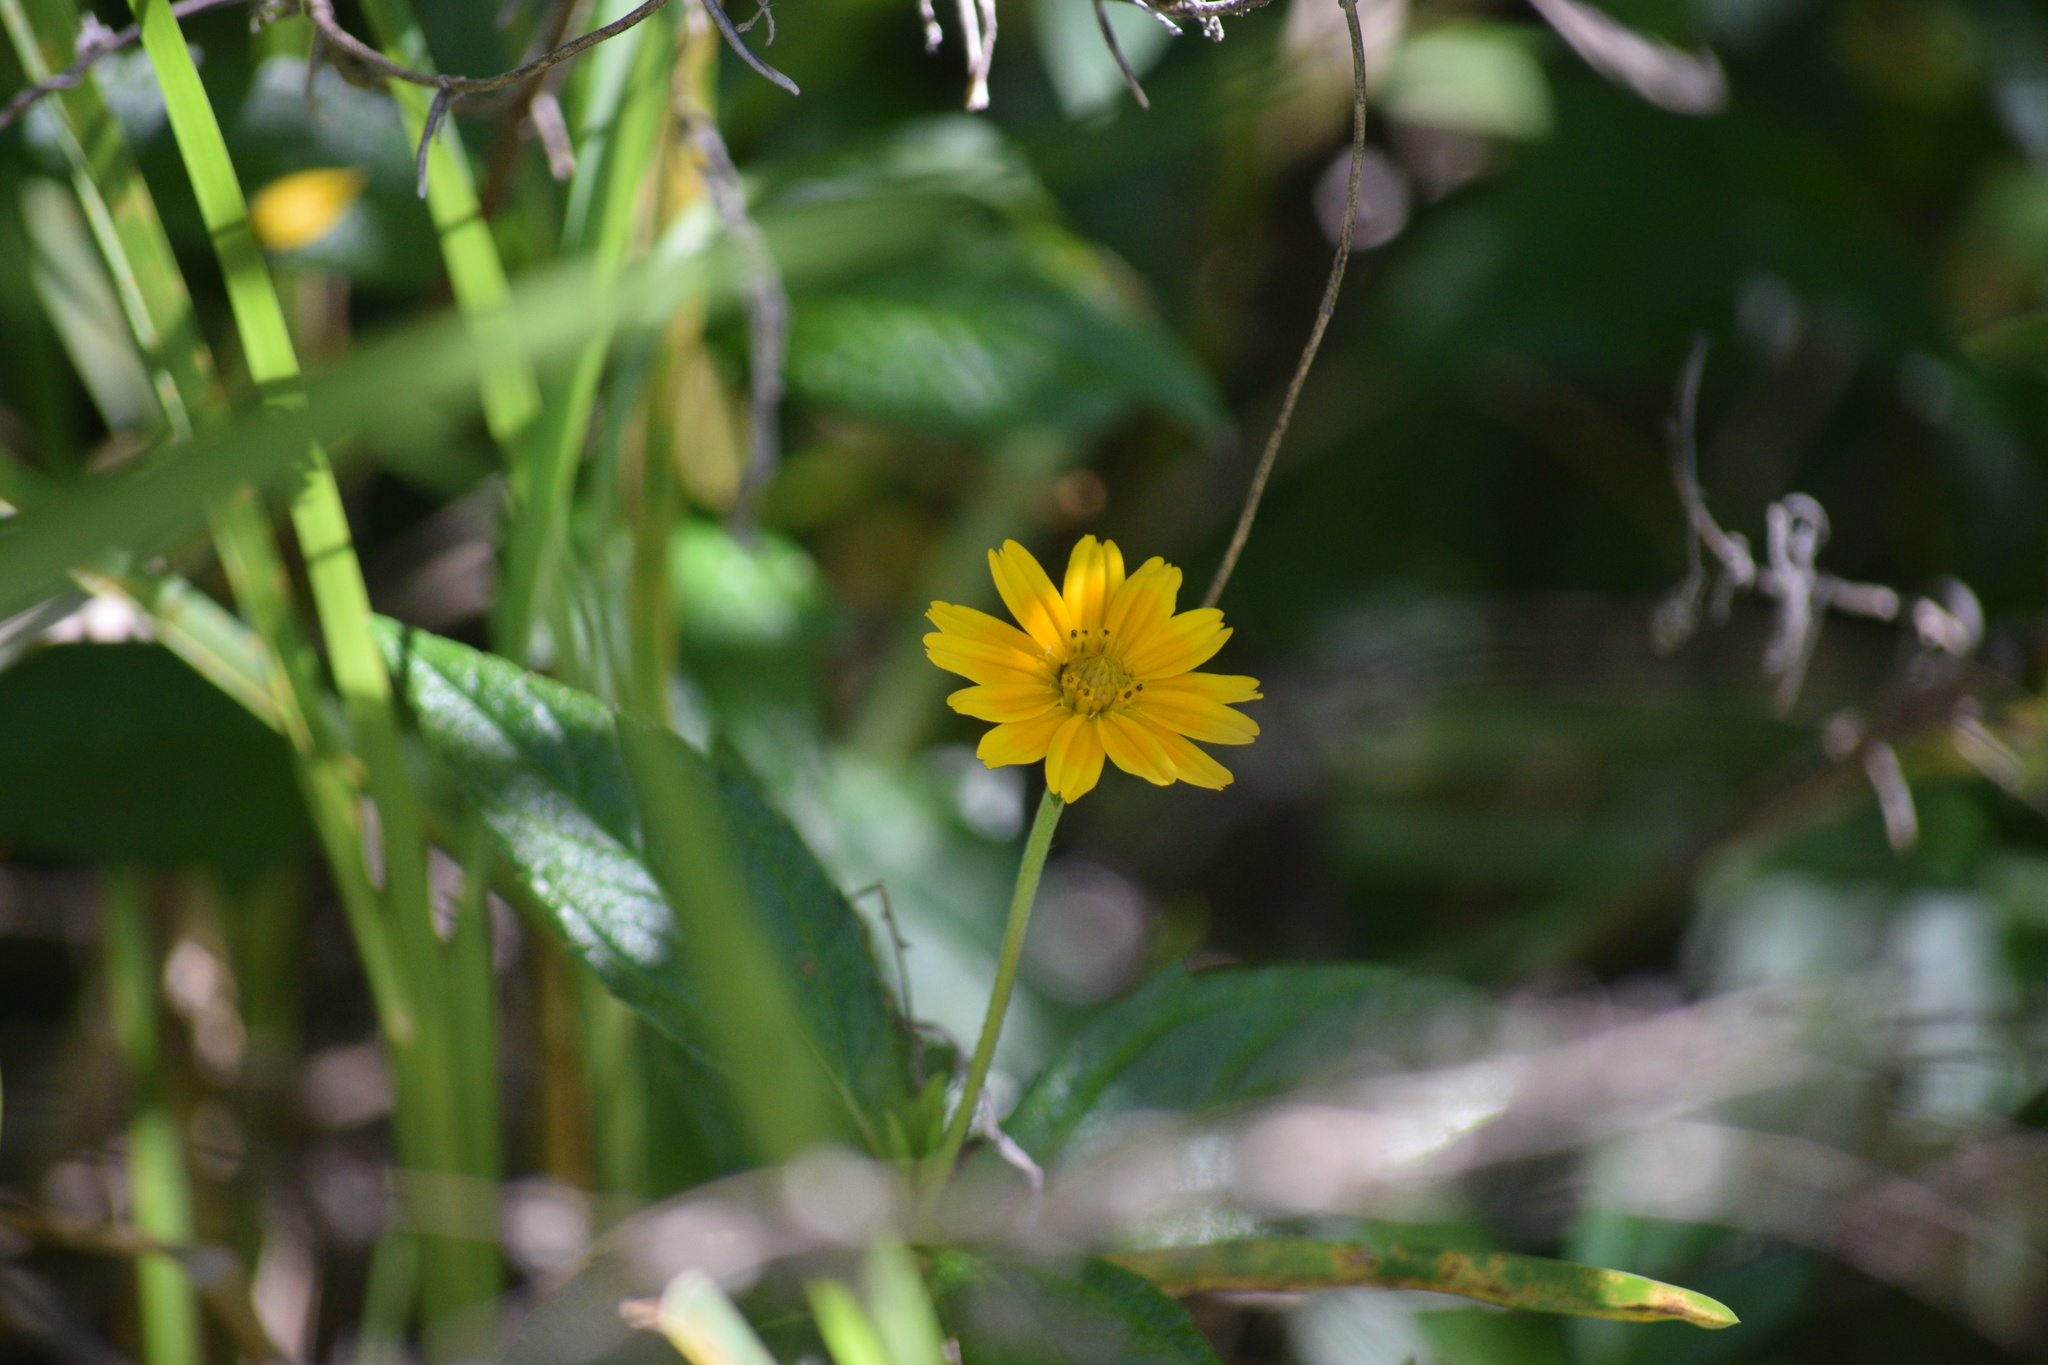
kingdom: Plantae
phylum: Tracheophyta
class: Magnoliopsida
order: Asterales
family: Asteraceae
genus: Sphagneticola
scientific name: Sphagneticola trilobata
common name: Bay biscayne creeping-oxeye
